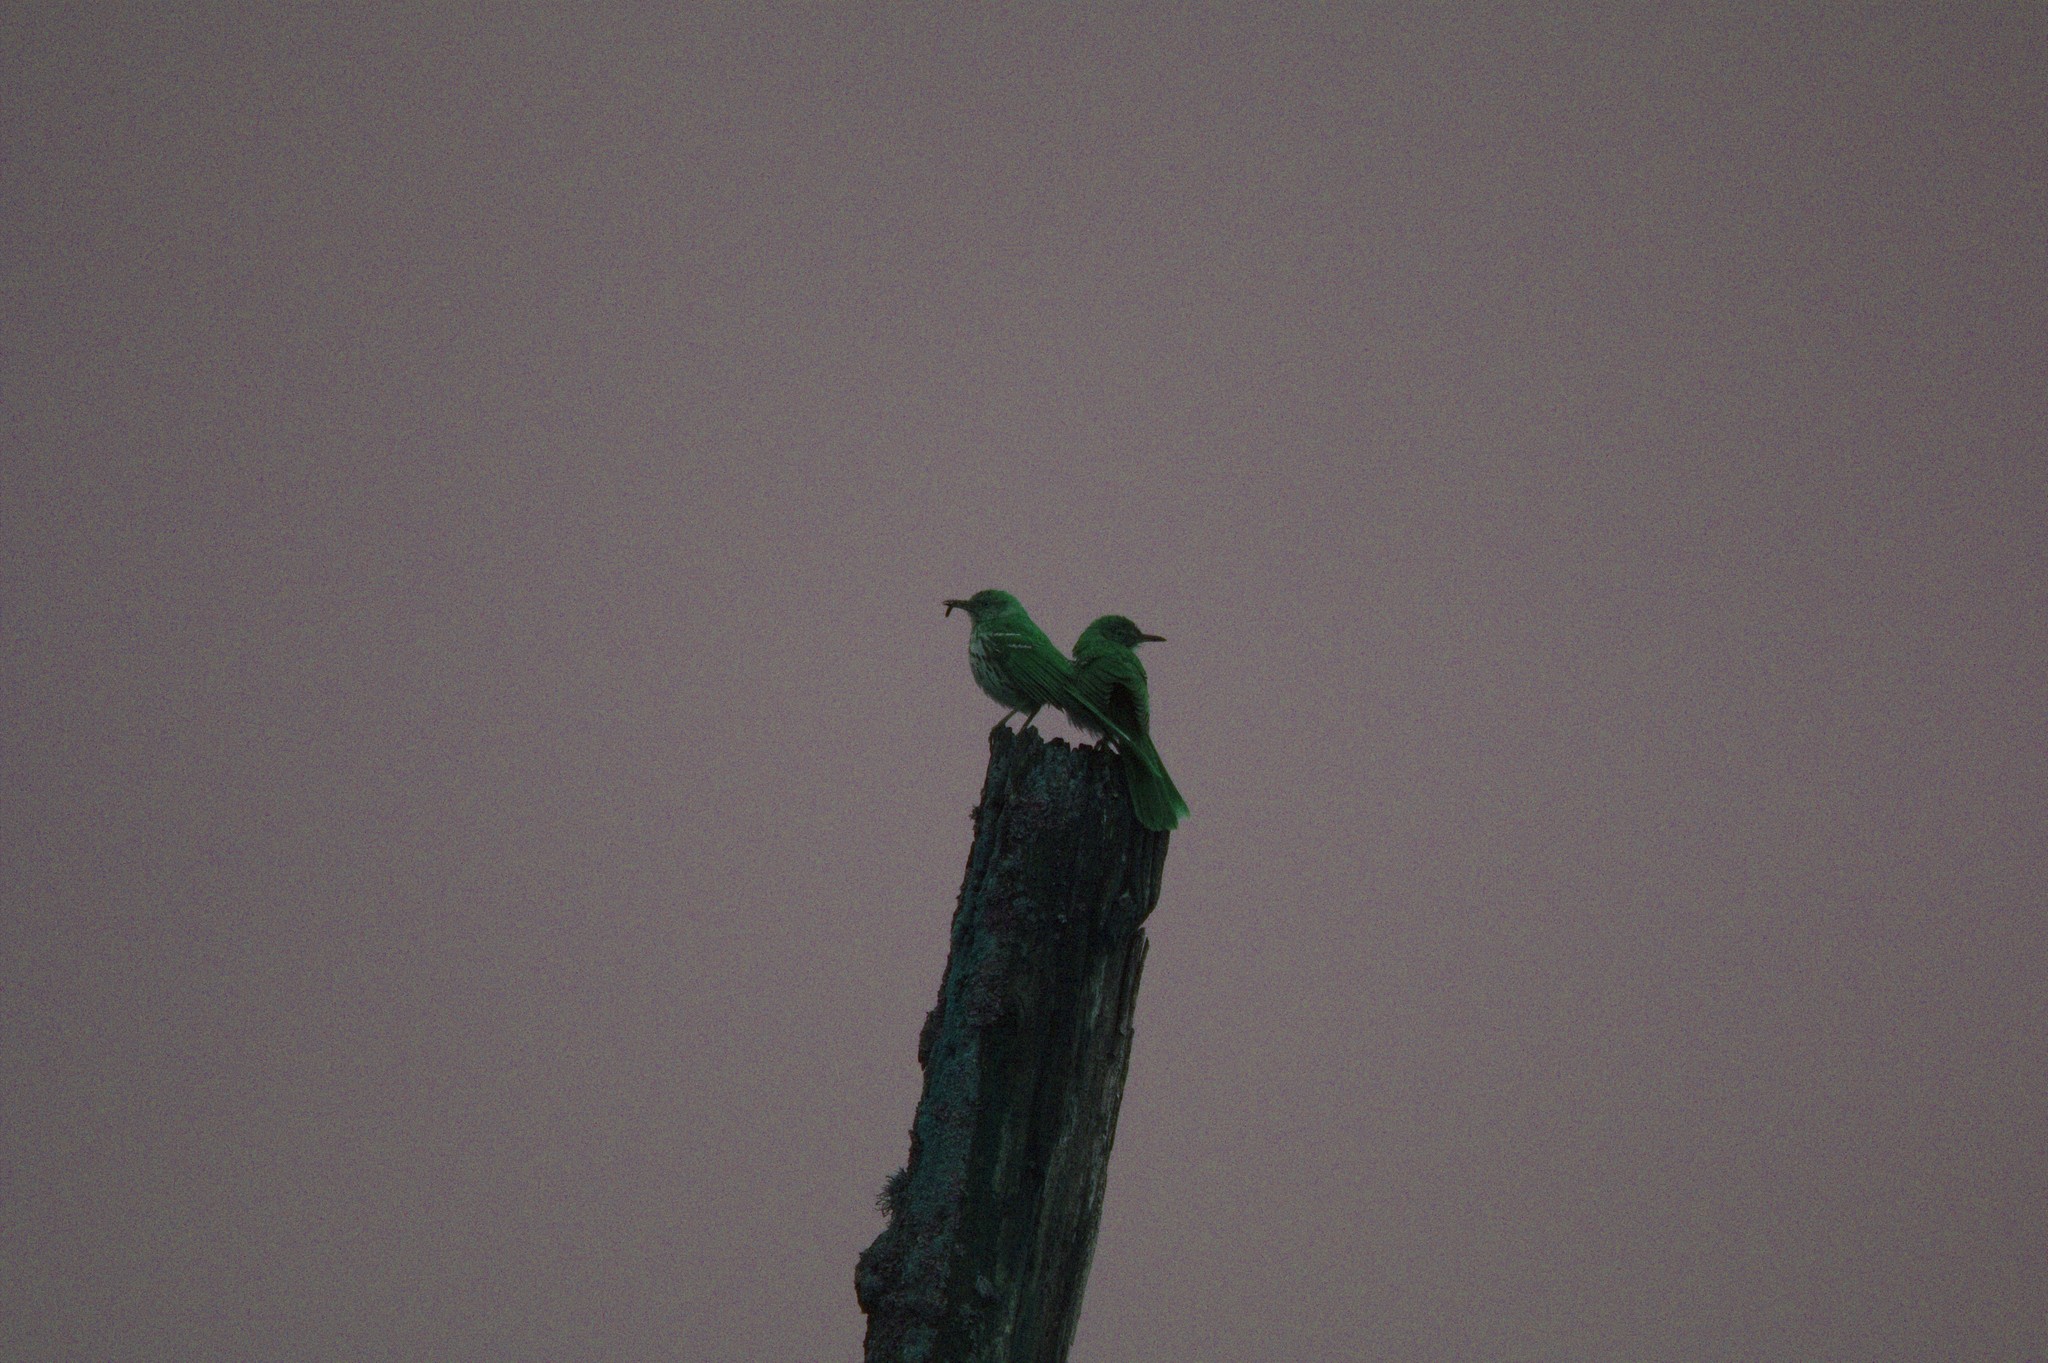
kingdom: Animalia
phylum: Chordata
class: Aves
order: Passeriformes
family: Mimidae
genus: Toxostoma
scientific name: Toxostoma rufum
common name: Brown thrasher
